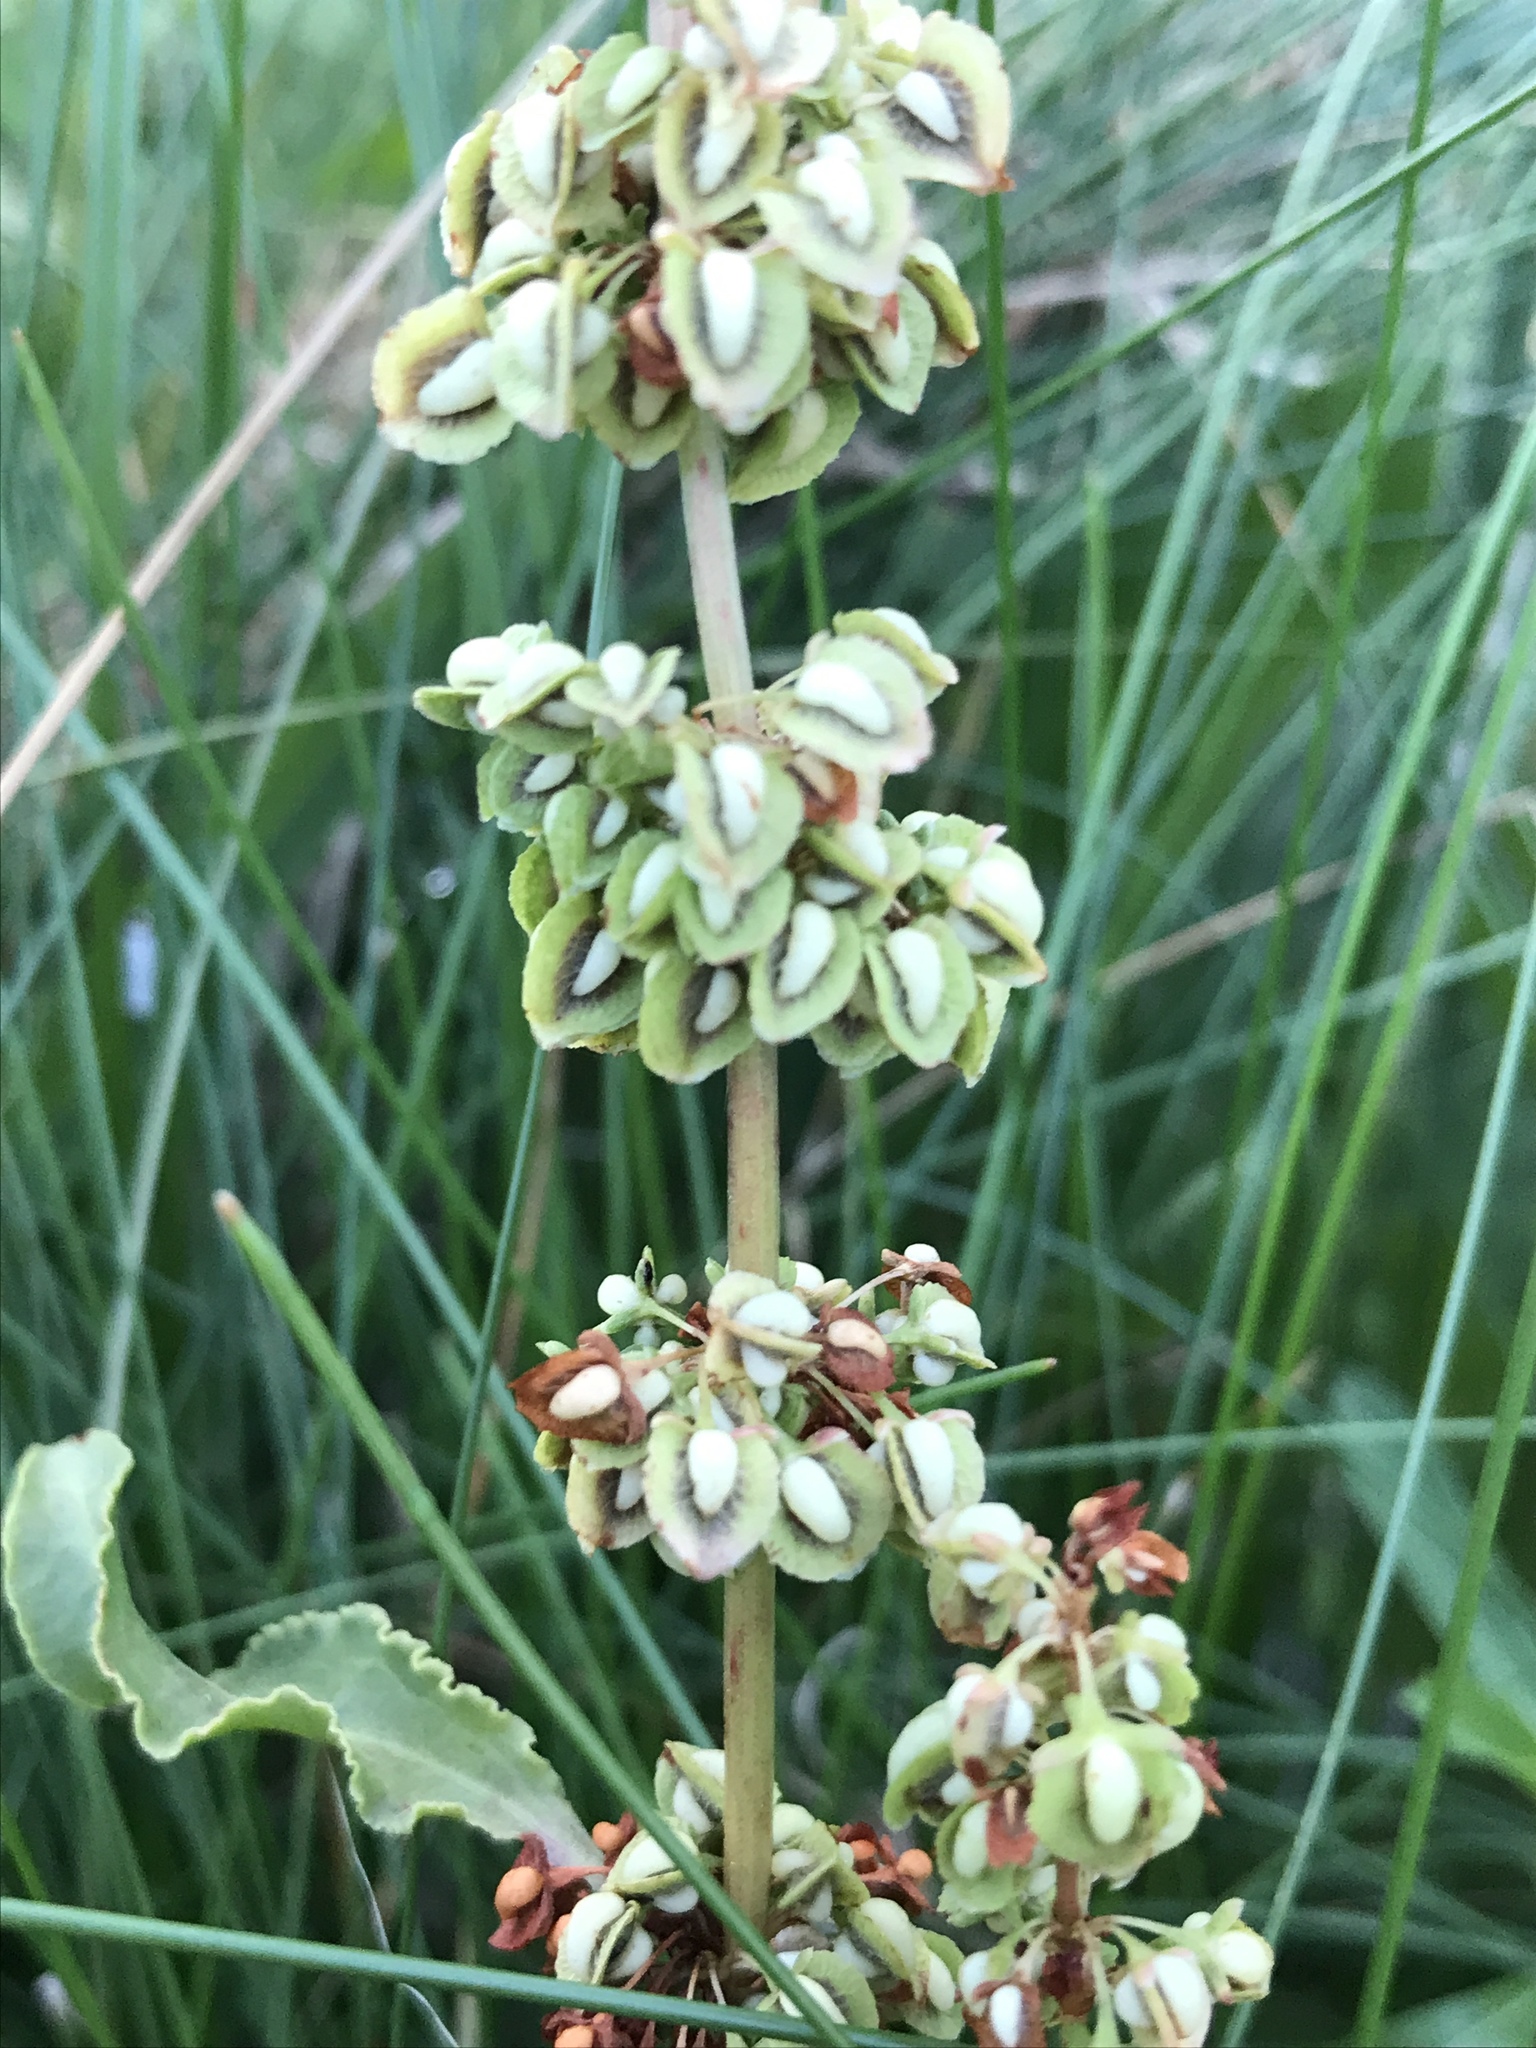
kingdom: Plantae
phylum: Tracheophyta
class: Magnoliopsida
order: Caryophyllales
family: Polygonaceae
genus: Rumex
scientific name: Rumex crispus
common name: Curled dock
